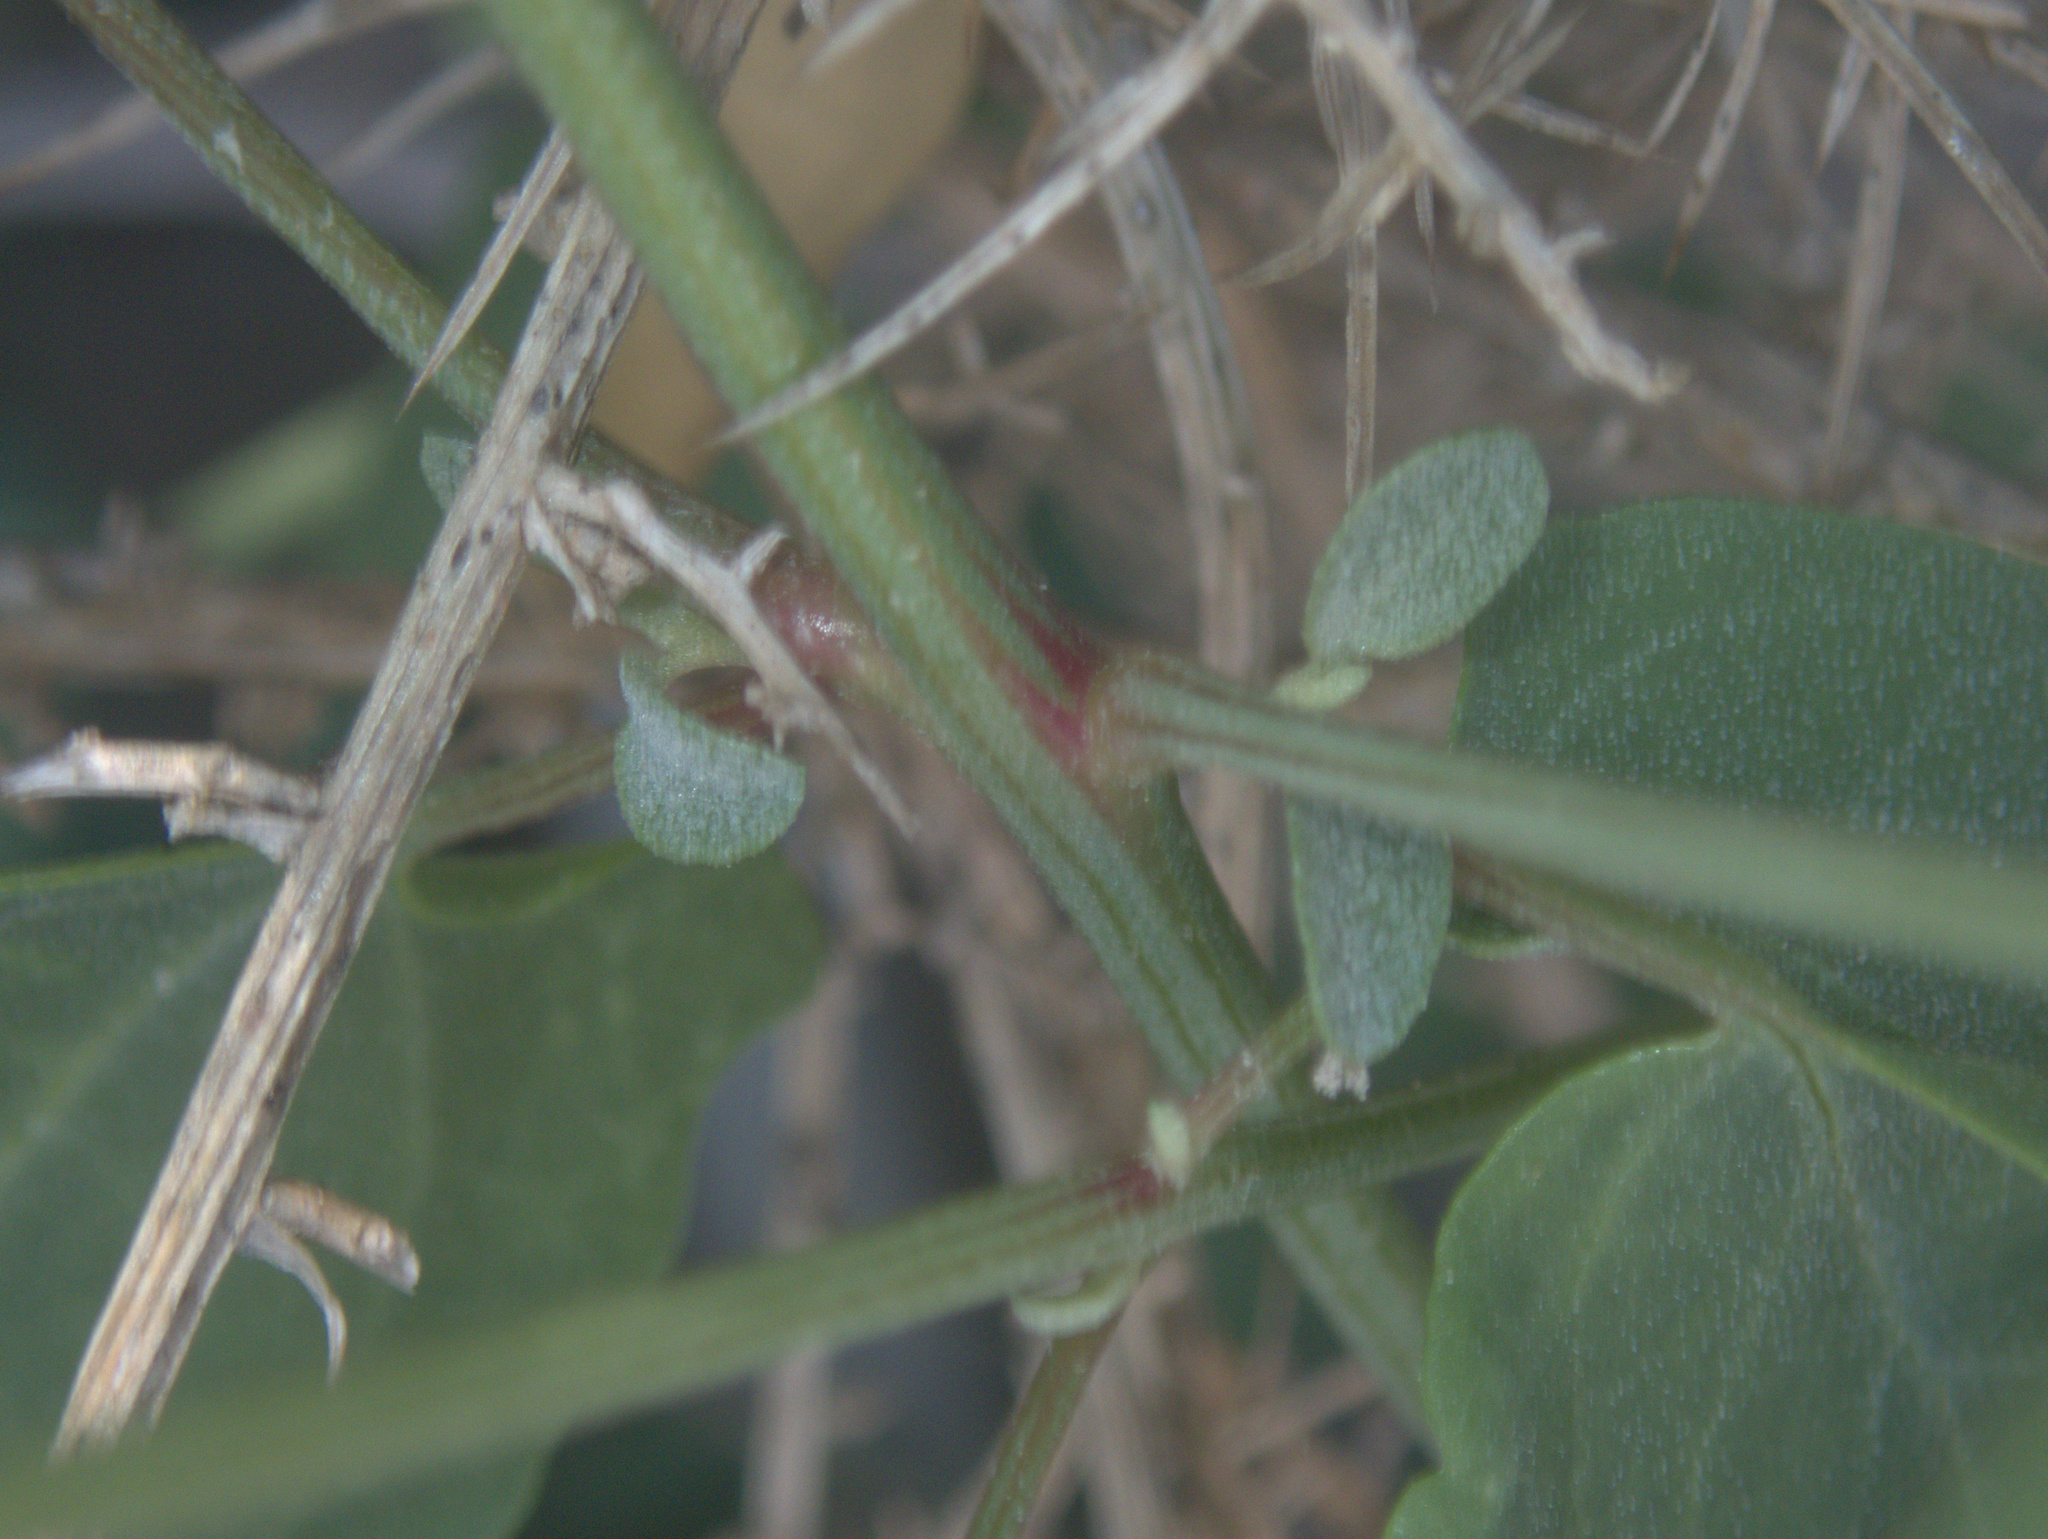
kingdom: Plantae
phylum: Tracheophyta
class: Magnoliopsida
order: Caryophyllales
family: Amaranthaceae
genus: Atriplex
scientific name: Atriplex prostrata
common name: Spear-leaved orache
